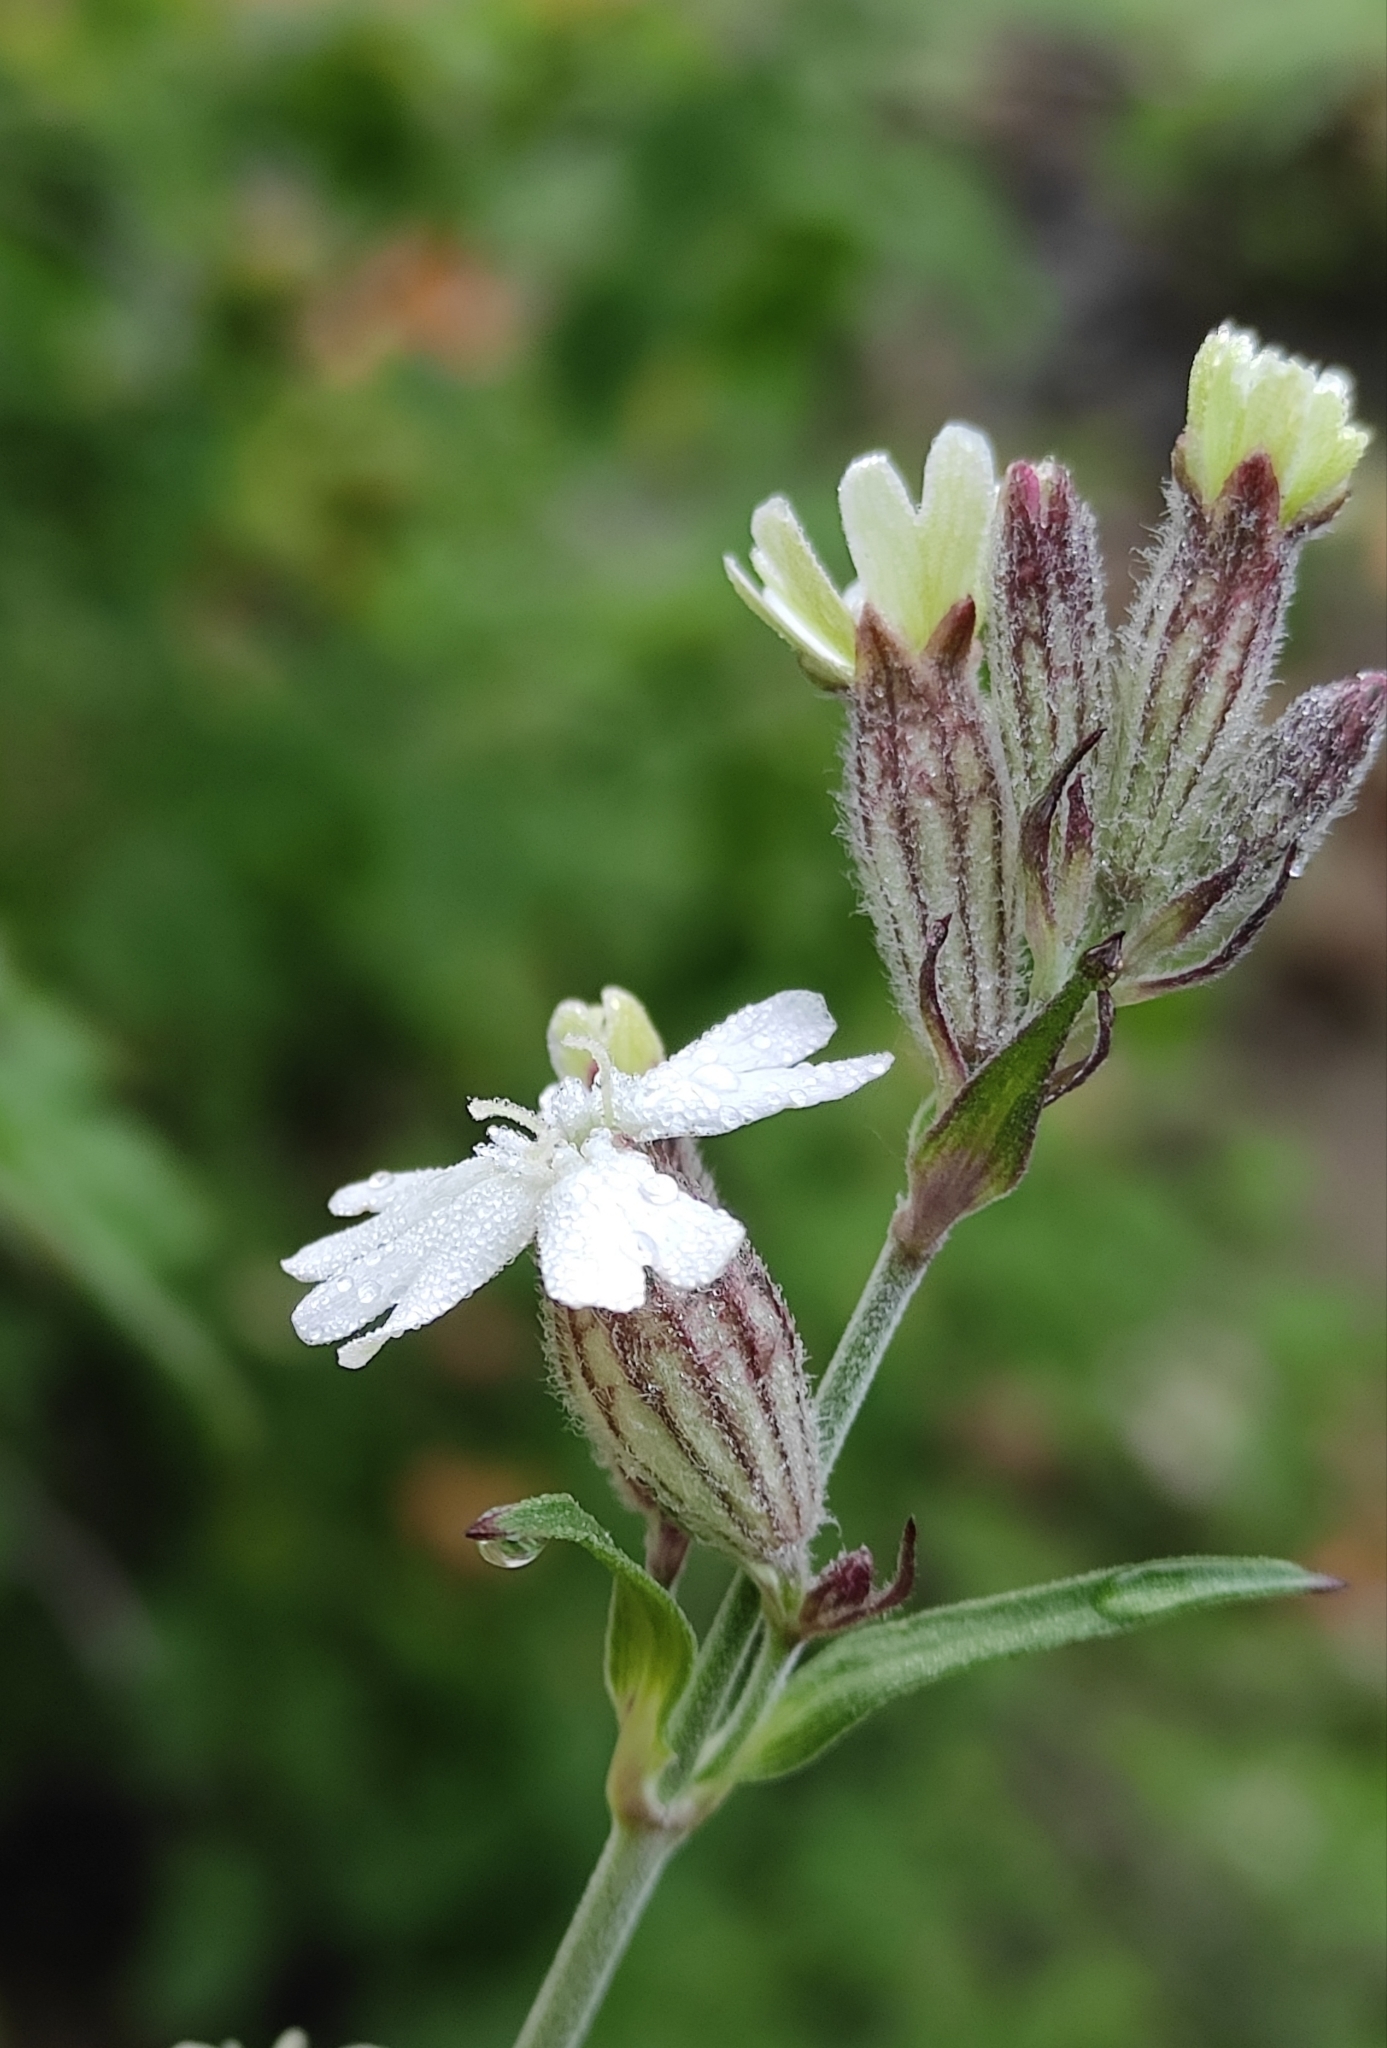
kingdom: Plantae
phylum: Tracheophyta
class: Magnoliopsida
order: Caryophyllales
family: Caryophyllaceae
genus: Silene
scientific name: Silene amoena
